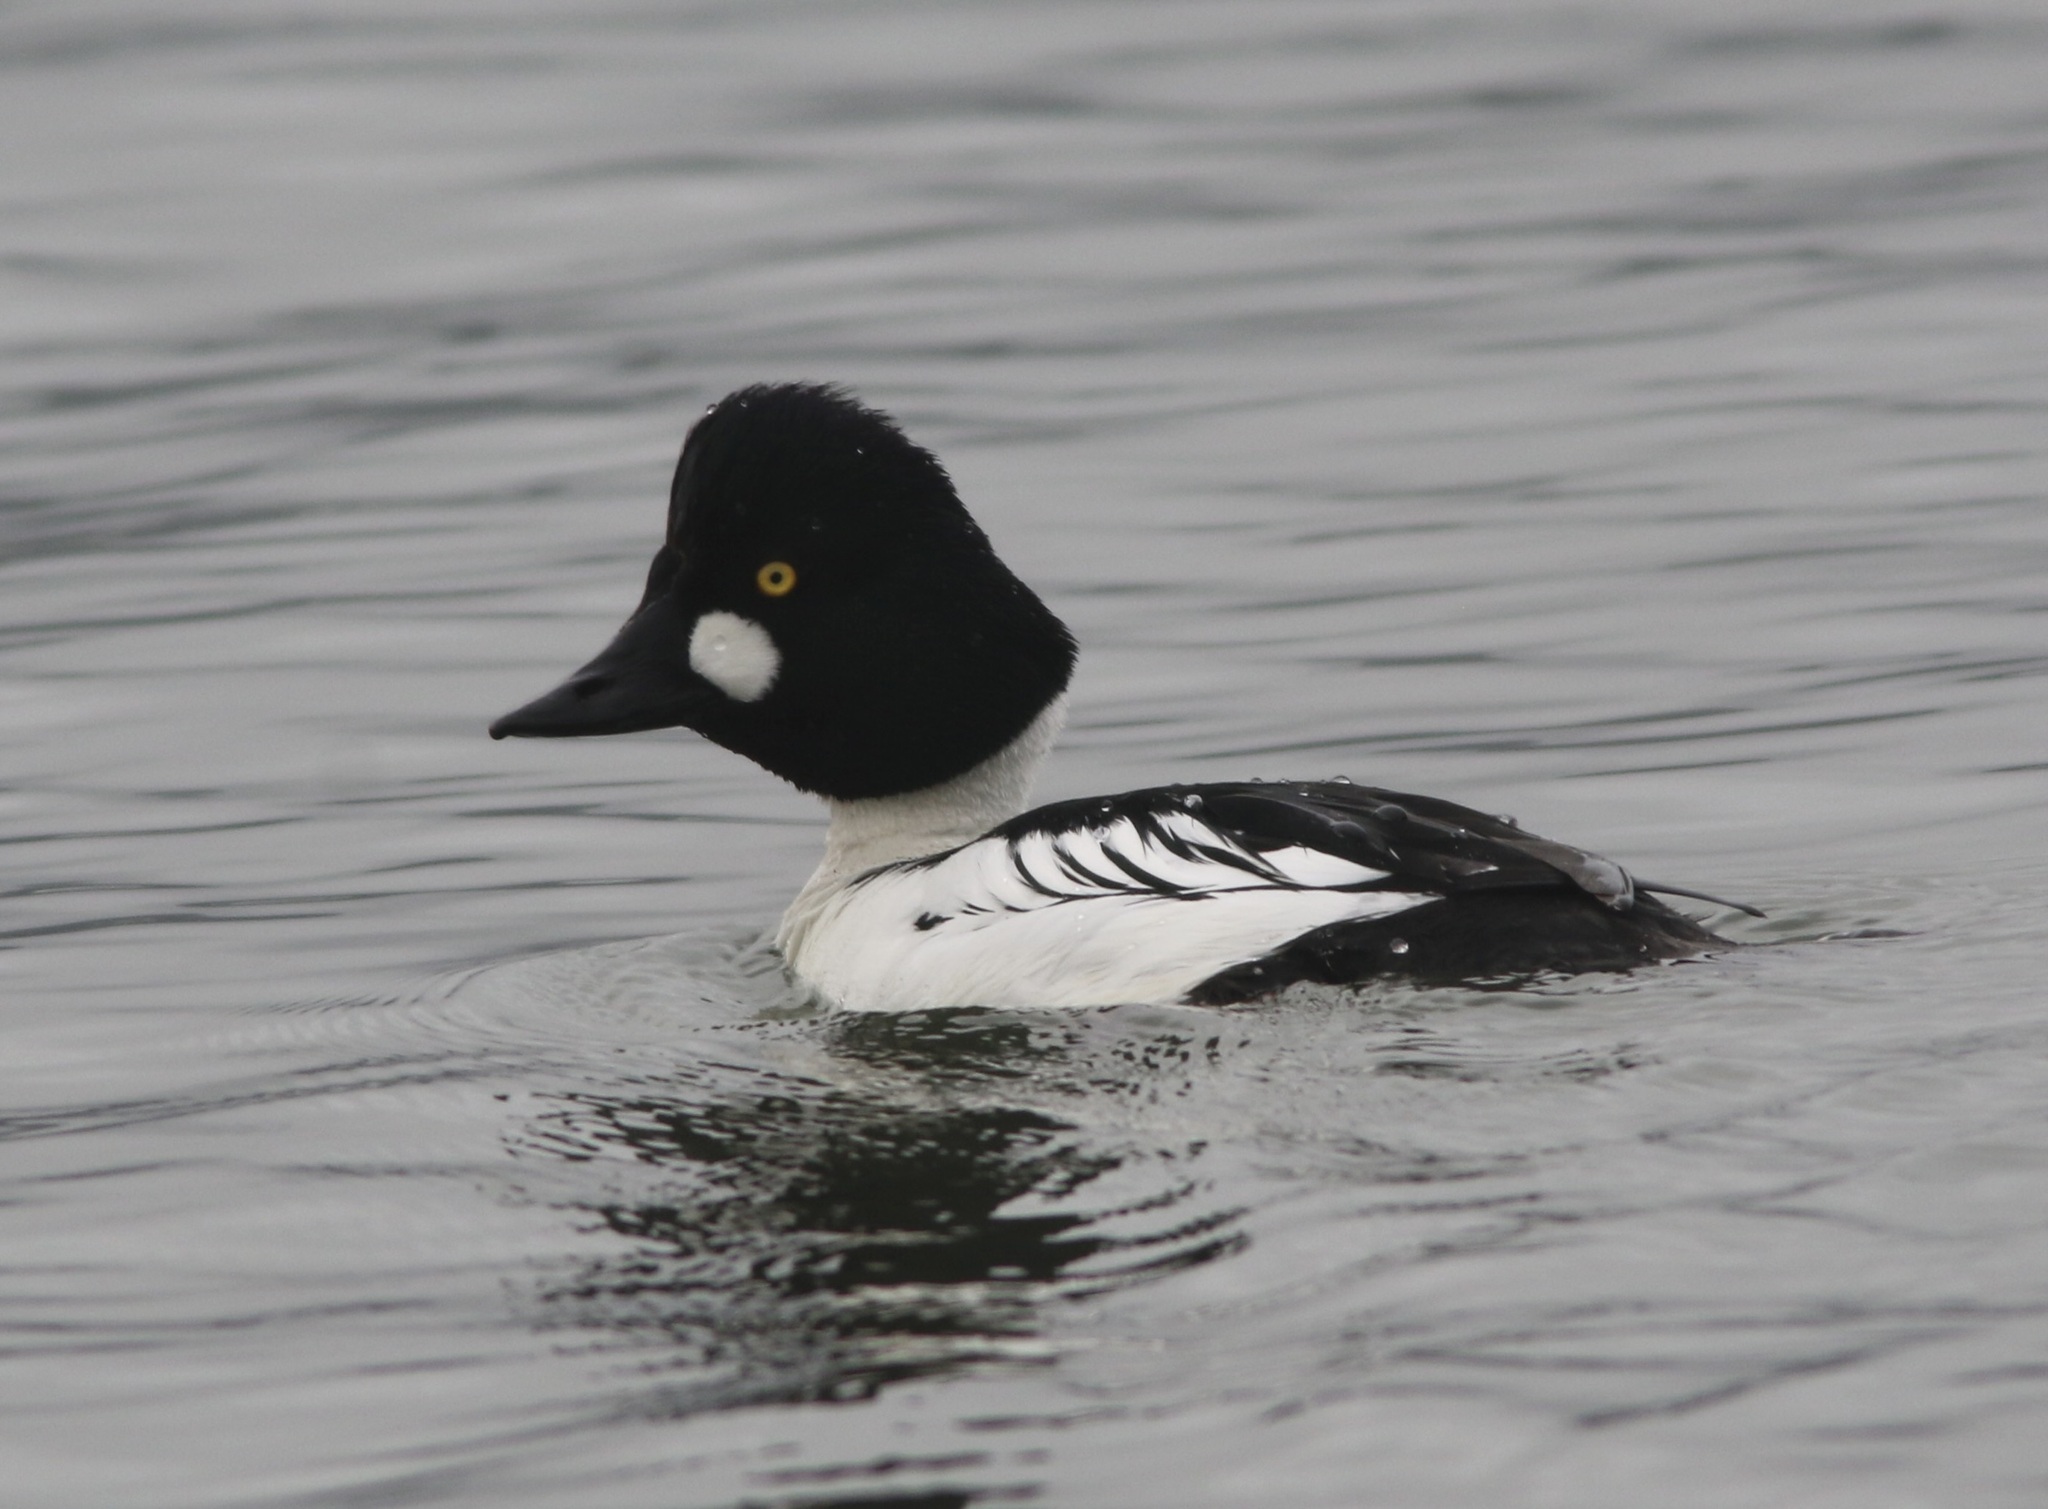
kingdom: Animalia
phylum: Chordata
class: Aves
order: Anseriformes
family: Anatidae
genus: Bucephala
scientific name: Bucephala clangula
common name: Common goldeneye
